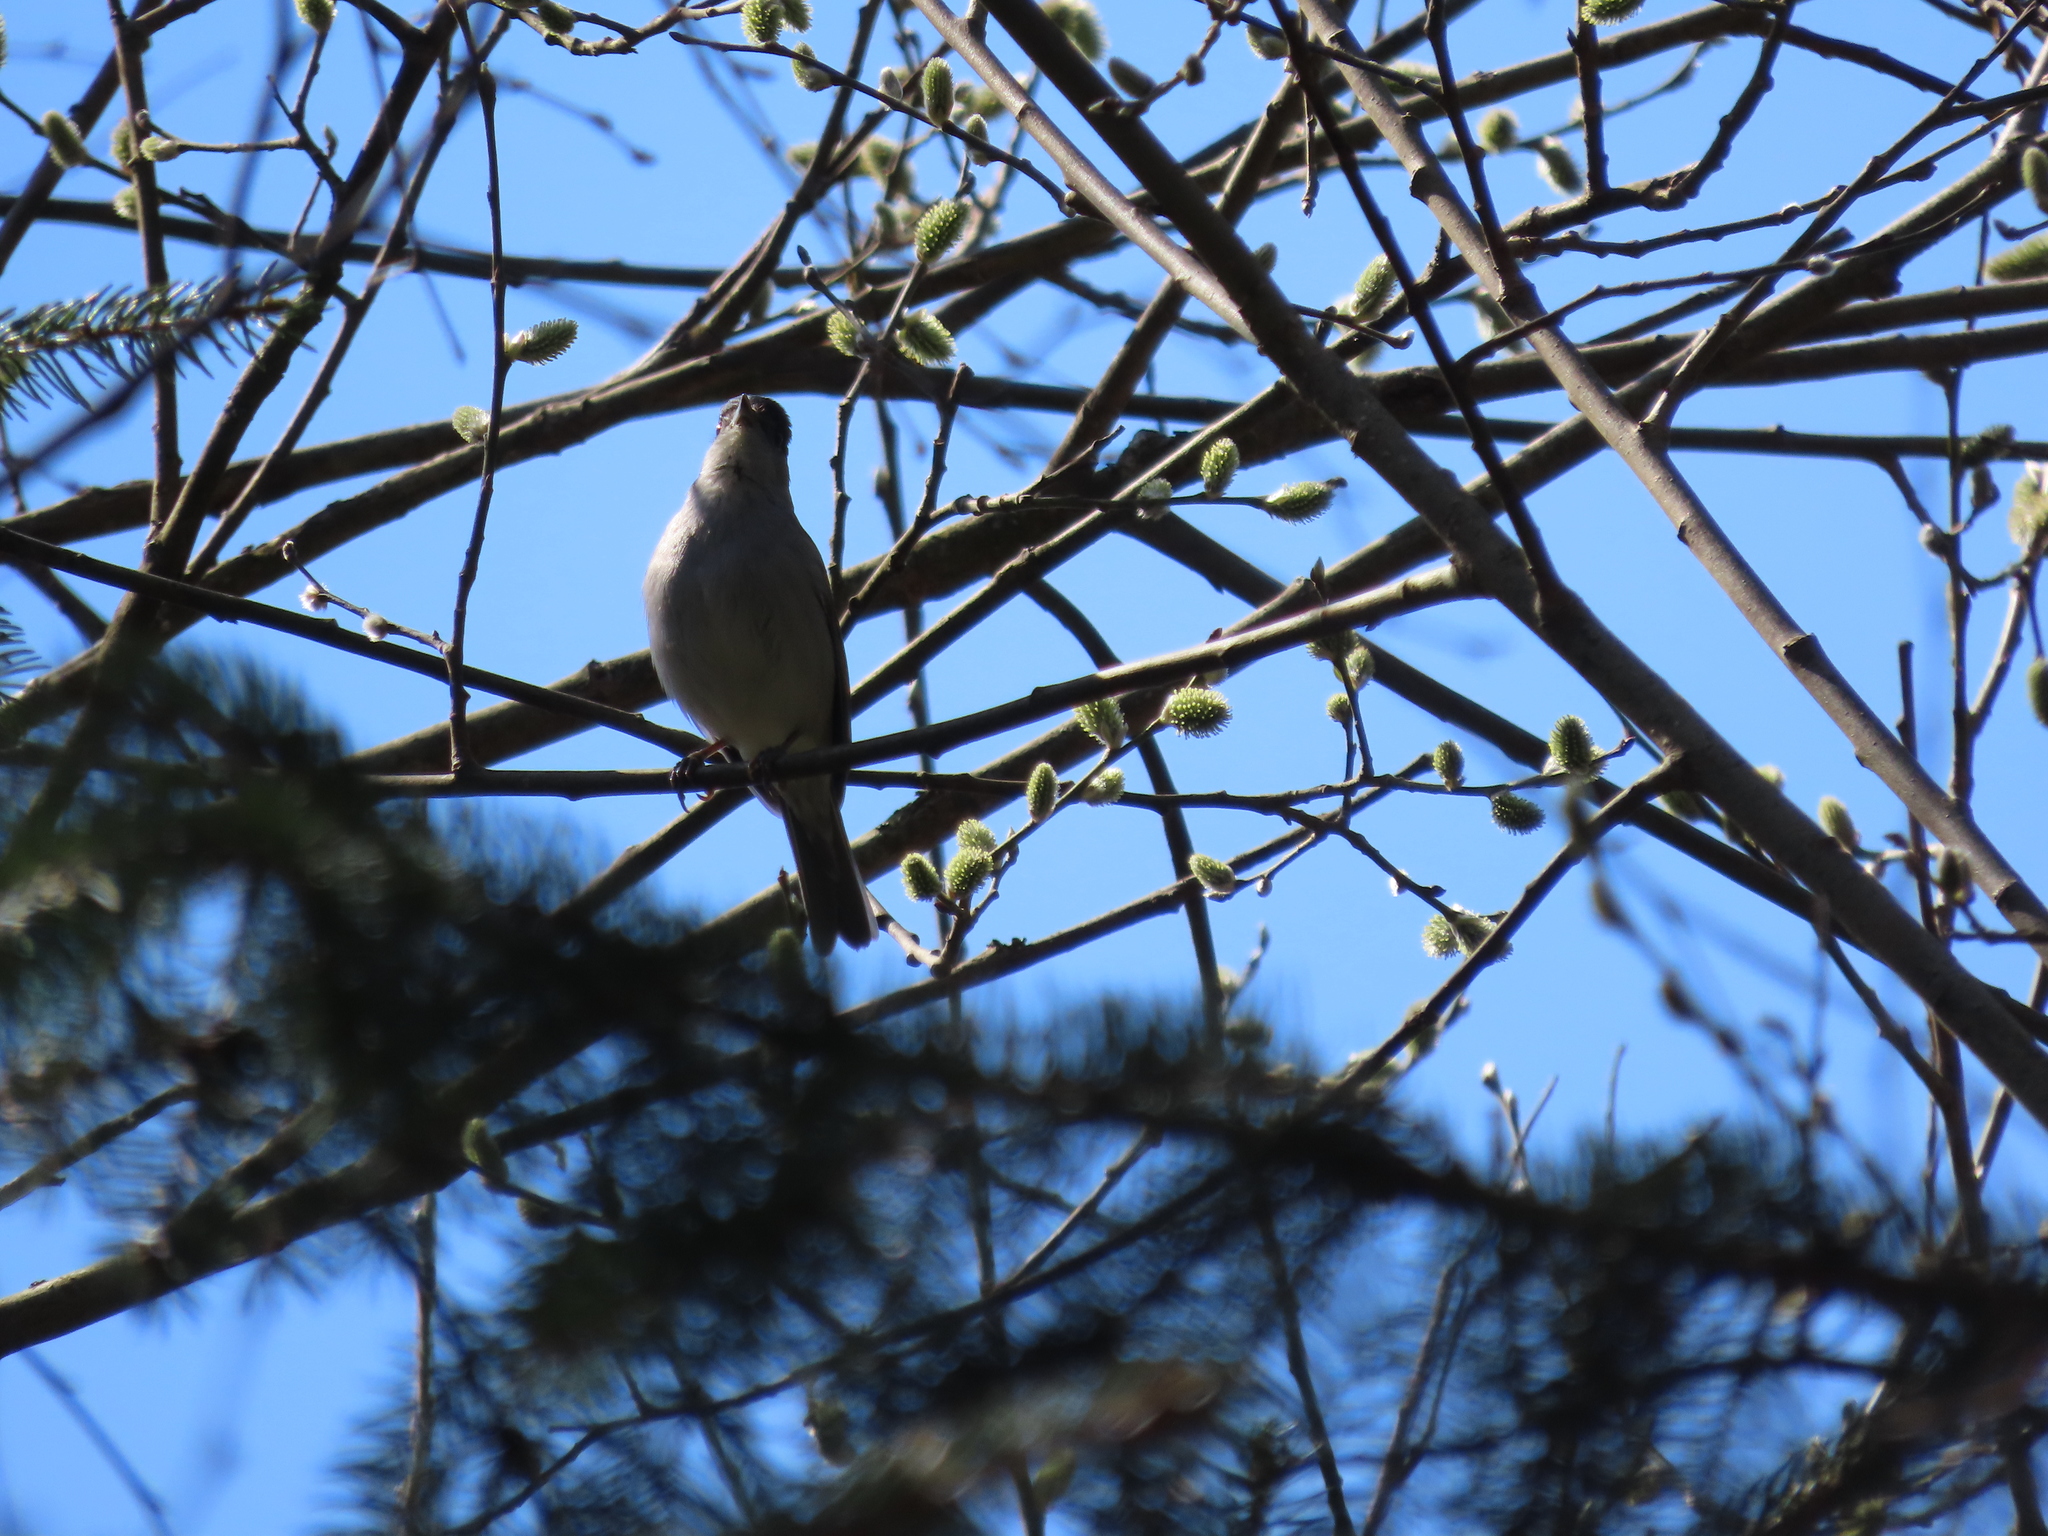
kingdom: Animalia
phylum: Chordata
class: Aves
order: Passeriformes
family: Sylviidae
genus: Sylvia
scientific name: Sylvia atricapilla
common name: Eurasian blackcap
